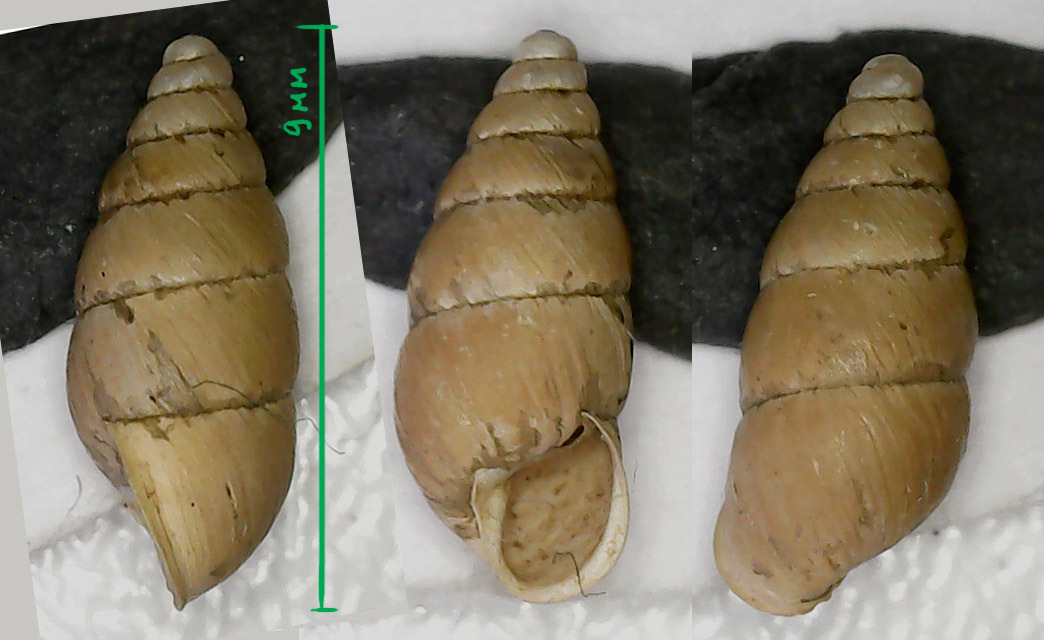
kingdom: Animalia
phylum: Mollusca
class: Gastropoda
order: Stylommatophora
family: Enidae
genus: Merdigera
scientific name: Merdigera obscura
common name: Lesser bulin
